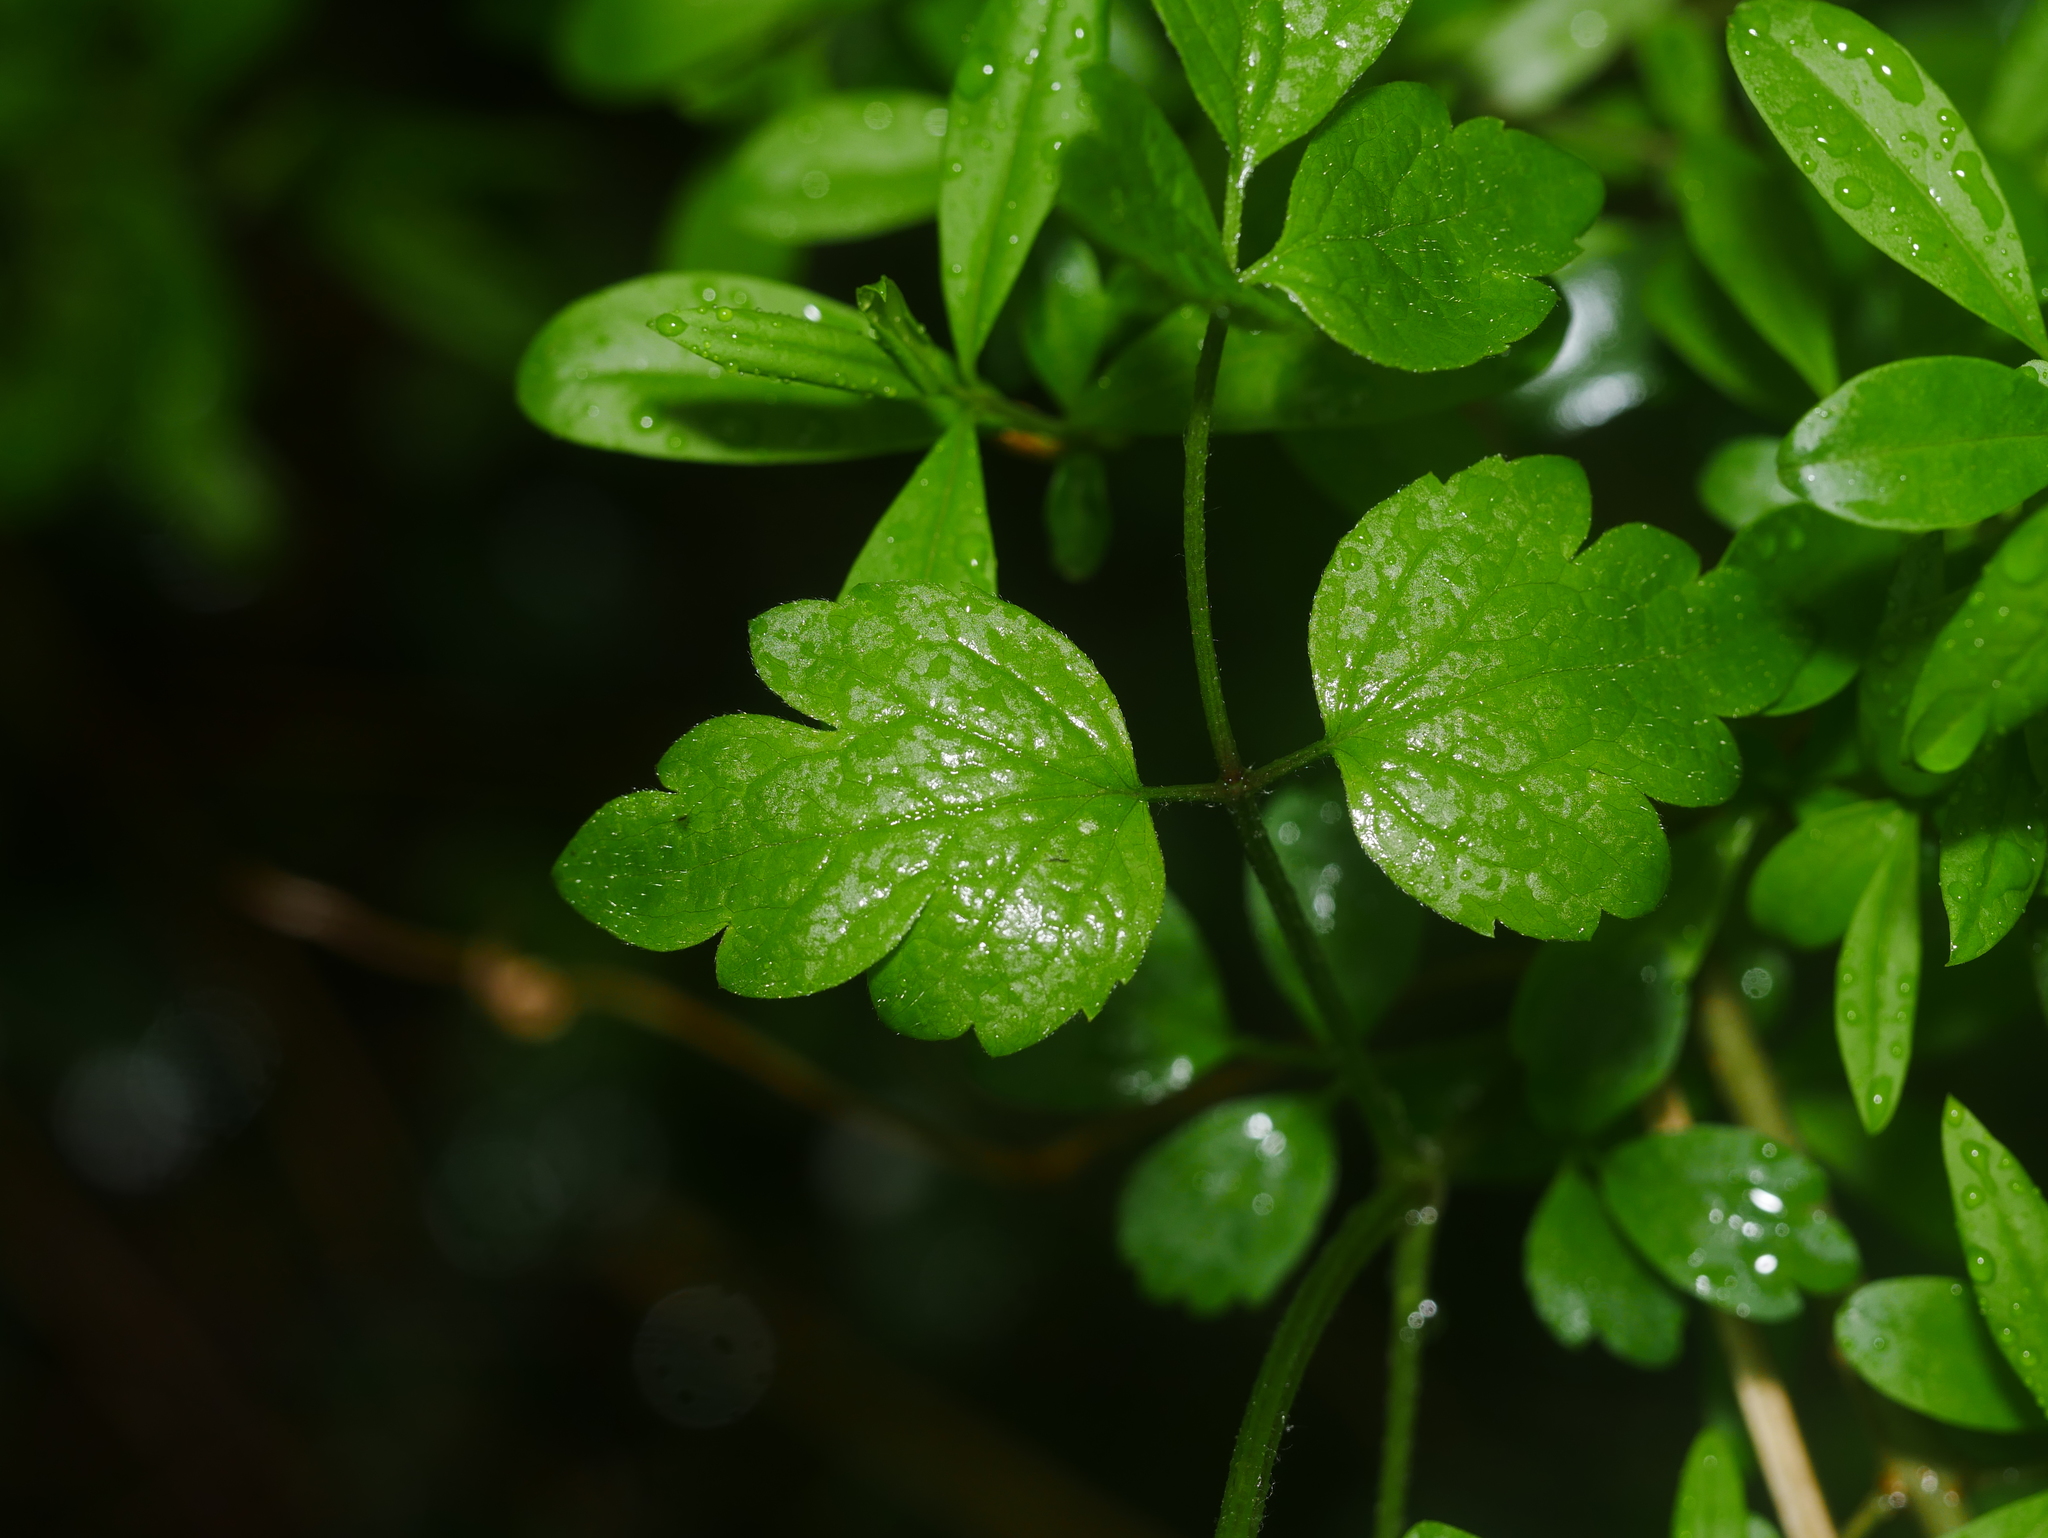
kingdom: Plantae
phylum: Tracheophyta
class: Magnoliopsida
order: Ranunculales
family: Ranunculaceae
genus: Clematis
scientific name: Clematis vitalba
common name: Evergreen clematis
